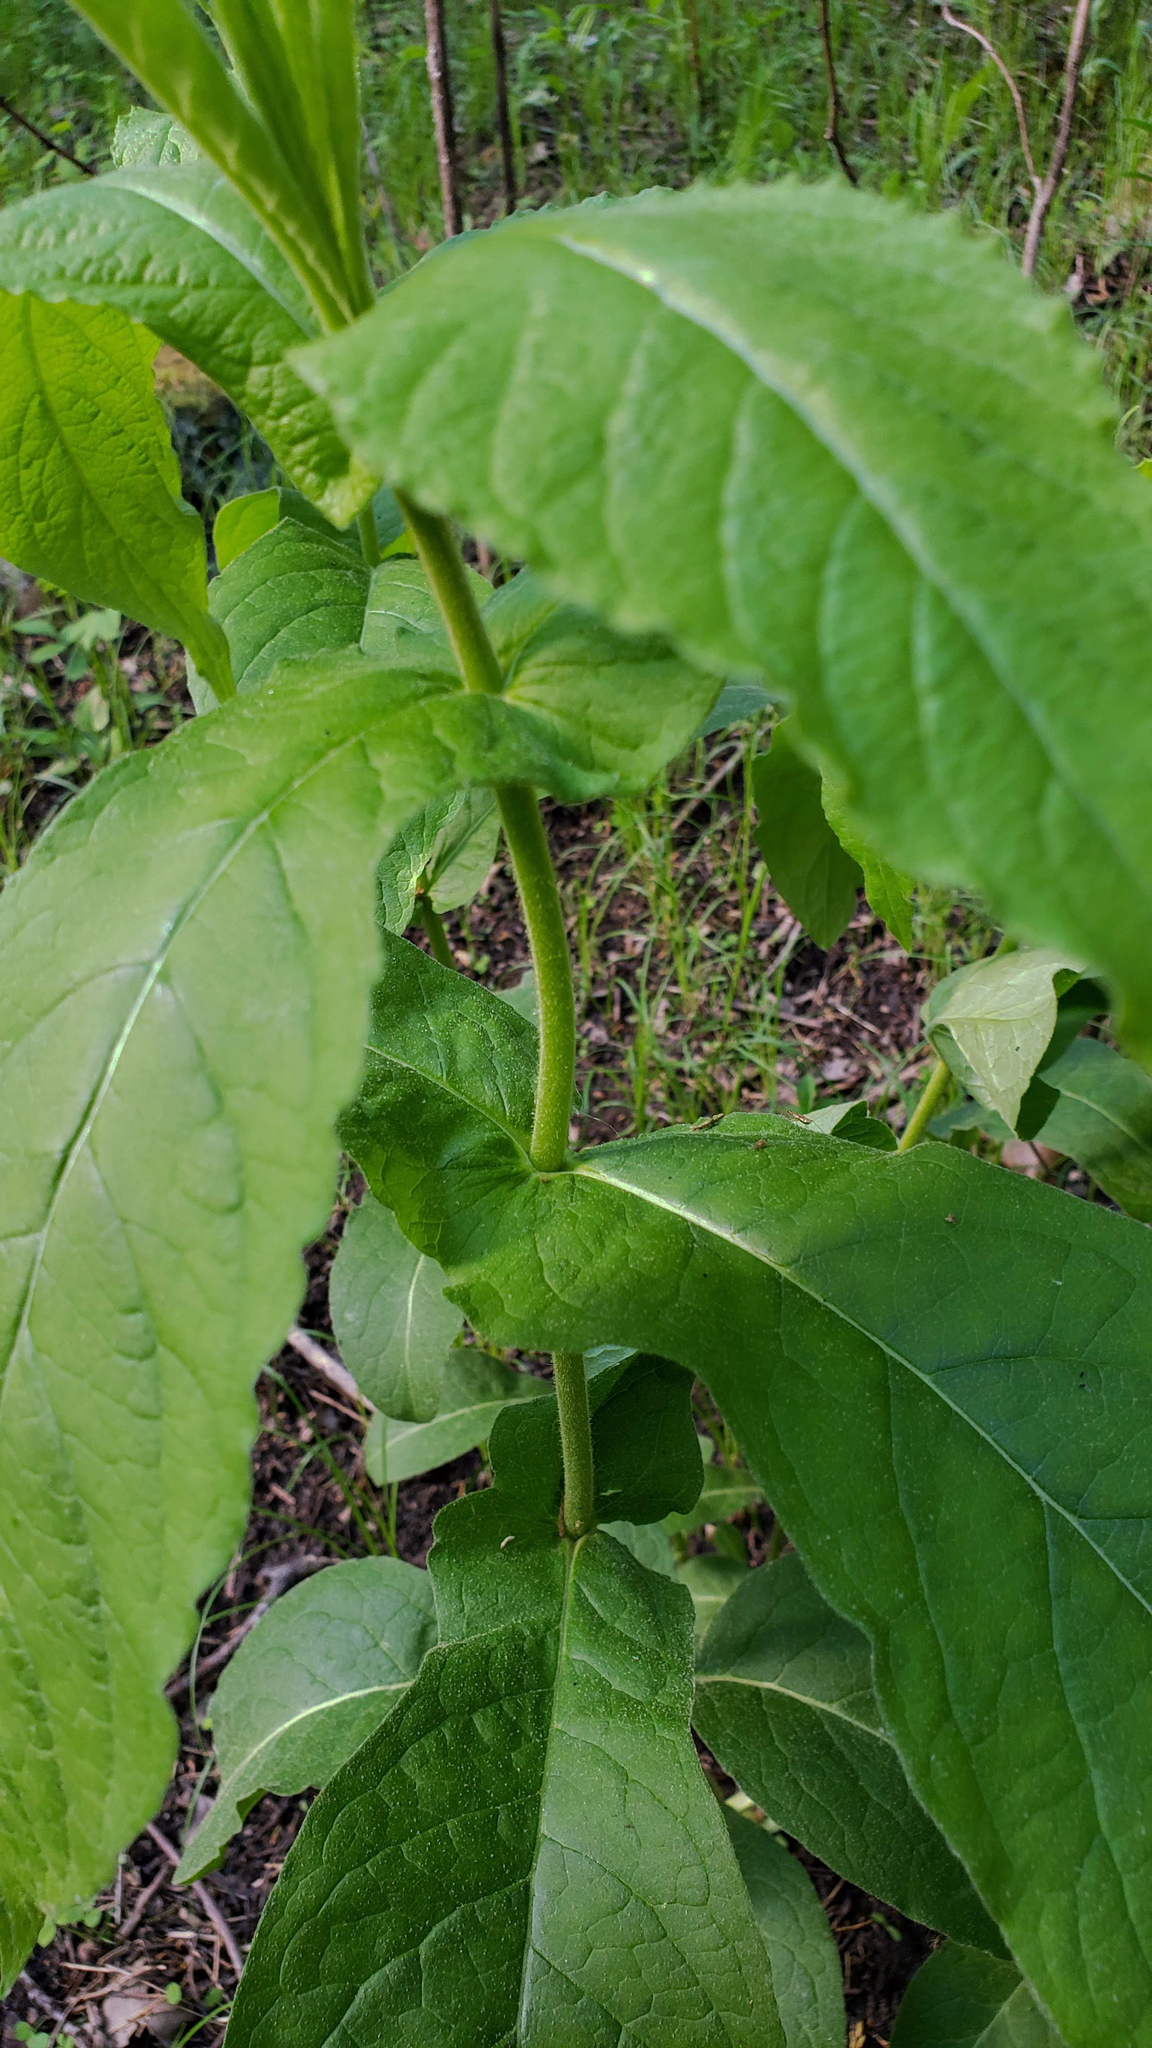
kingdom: Plantae
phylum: Tracheophyta
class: Magnoliopsida
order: Dipsacales
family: Caprifoliaceae
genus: Triosteum
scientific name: Triosteum perfoliatum
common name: Common horse-gentian
